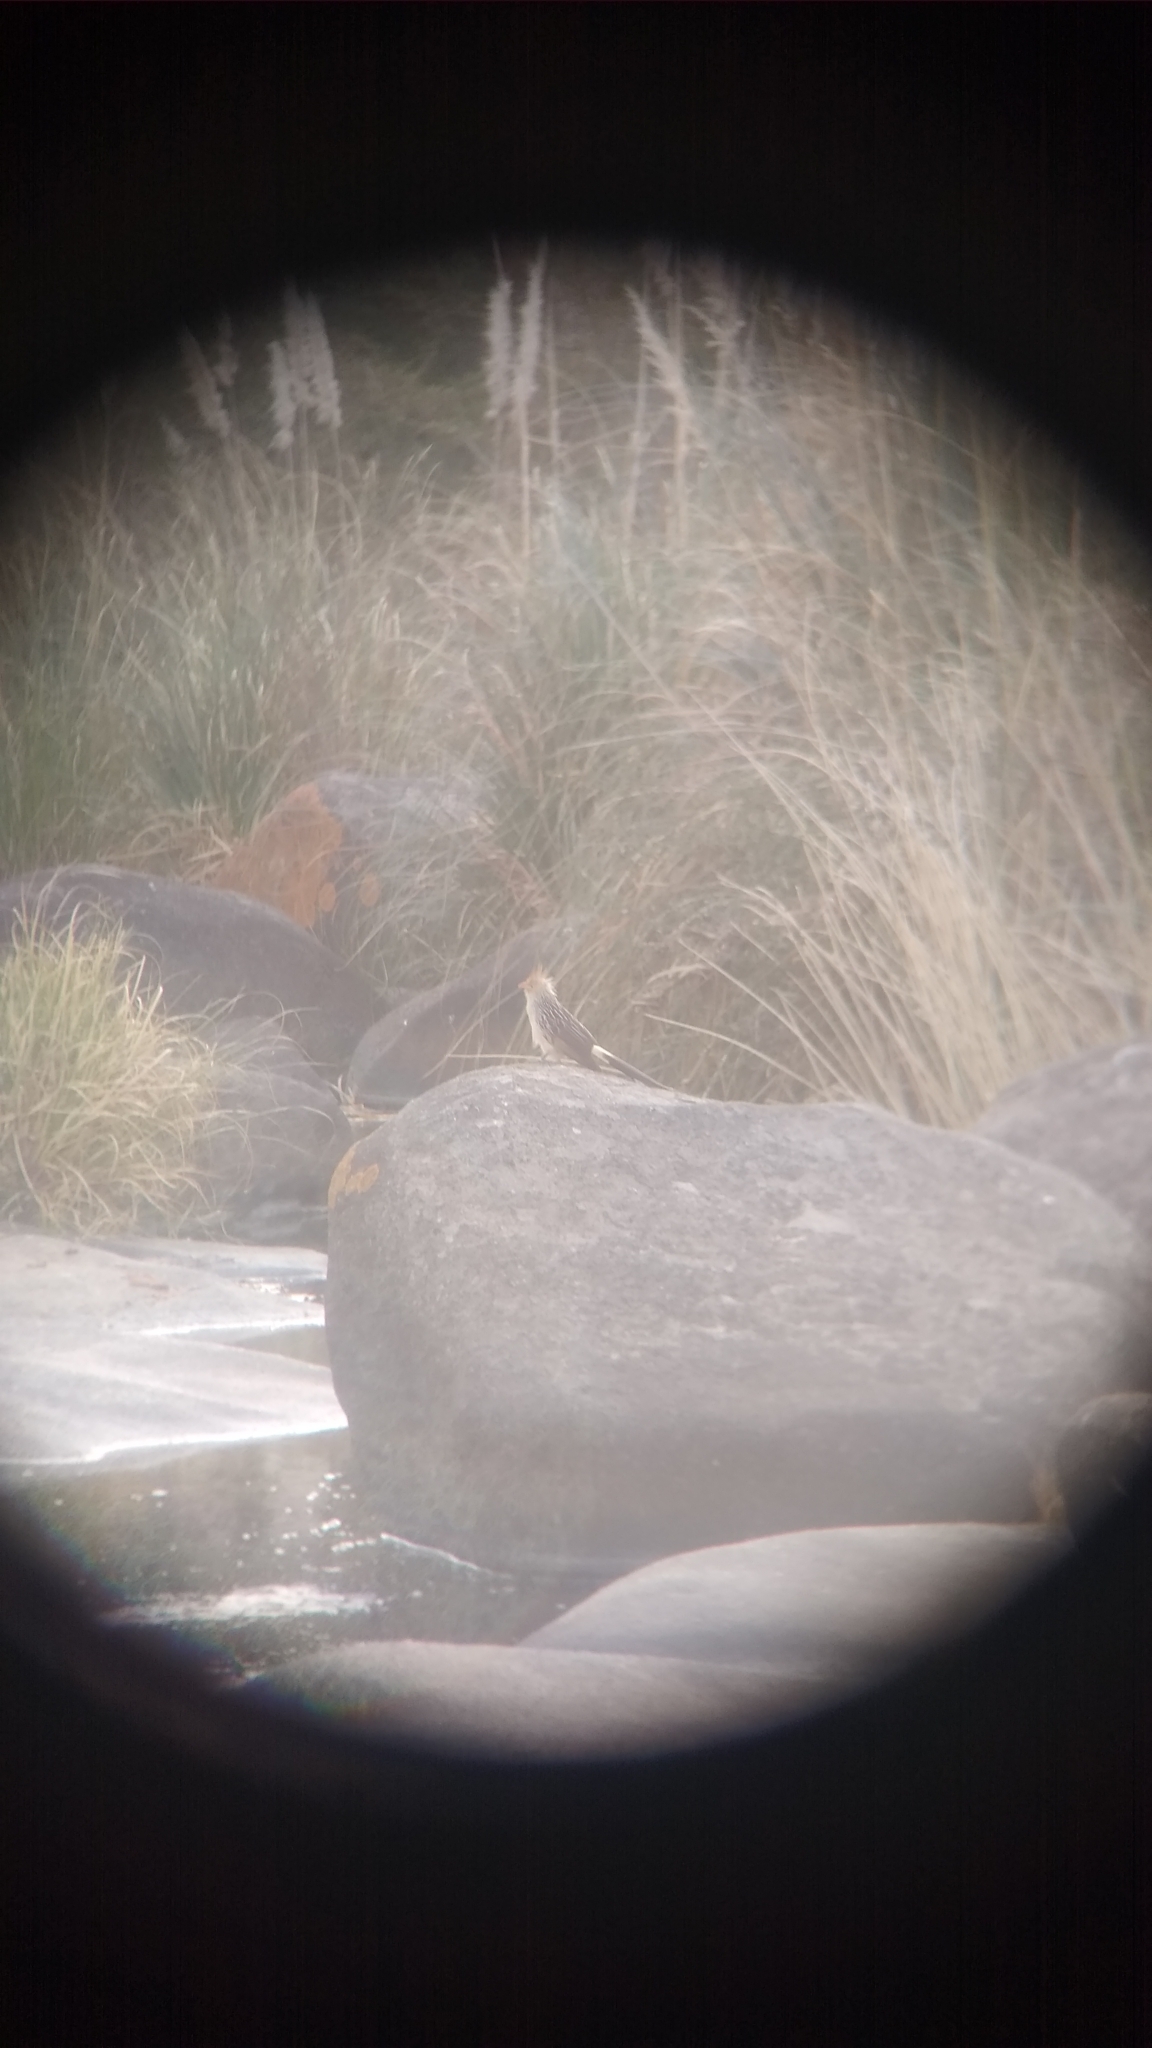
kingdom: Animalia
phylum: Chordata
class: Aves
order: Cuculiformes
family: Cuculidae
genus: Guira
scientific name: Guira guira
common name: Guira cuckoo
